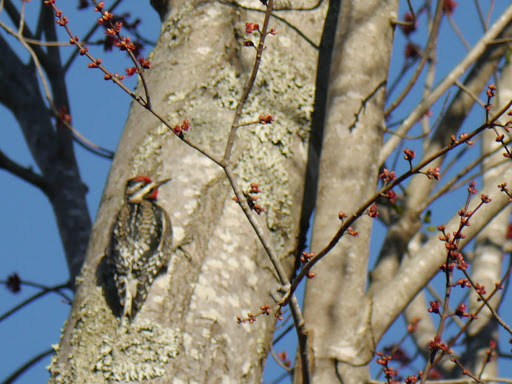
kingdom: Animalia
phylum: Chordata
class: Aves
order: Piciformes
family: Picidae
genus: Sphyrapicus
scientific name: Sphyrapicus varius
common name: Yellow-bellied sapsucker
